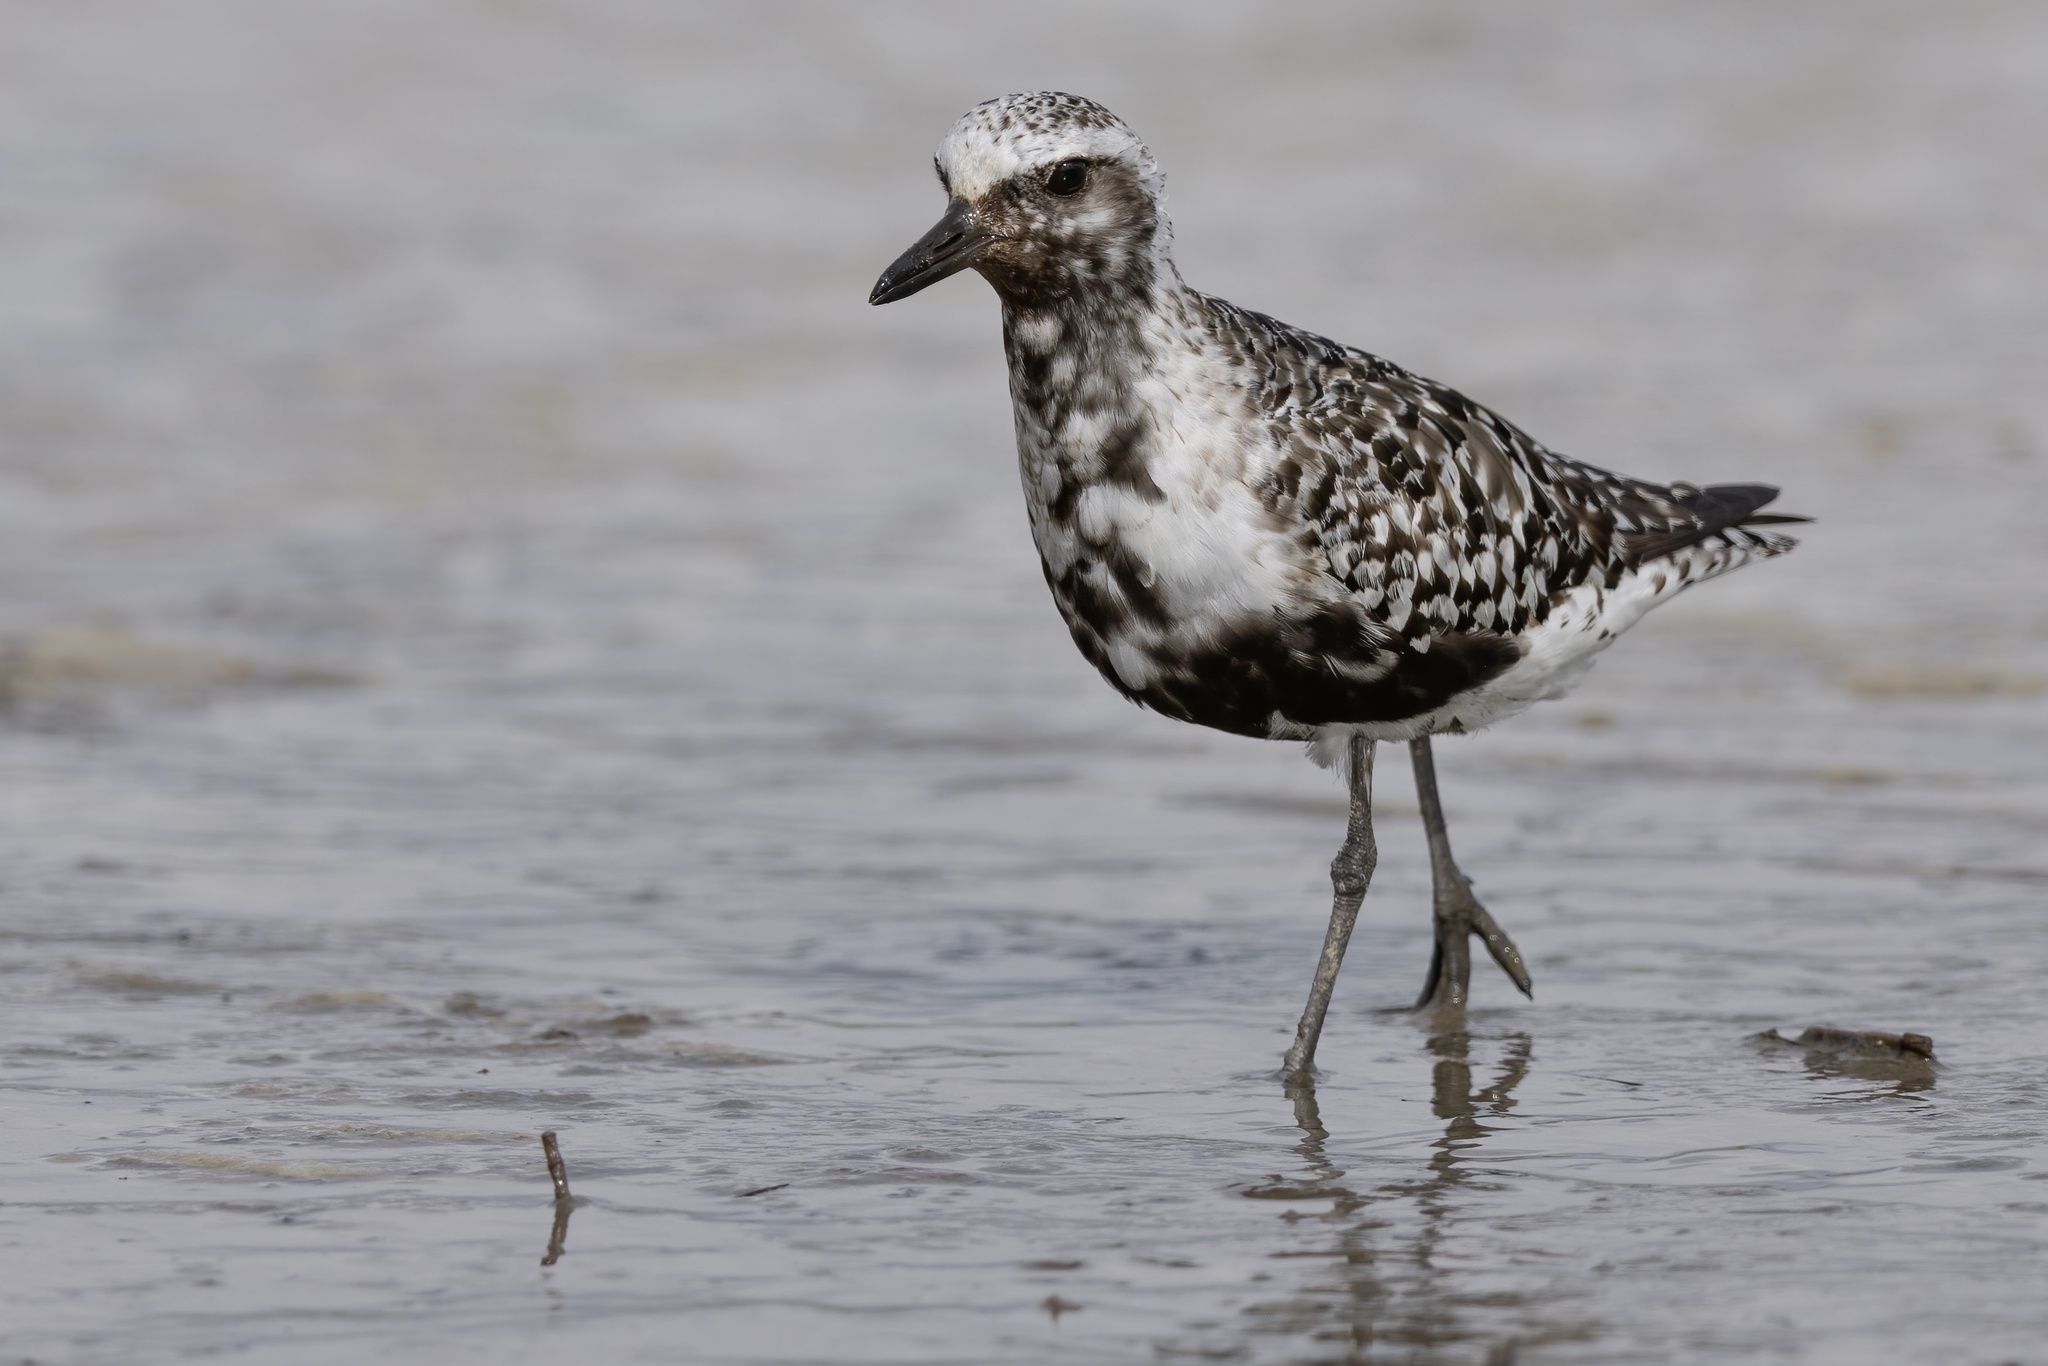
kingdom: Animalia
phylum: Chordata
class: Aves
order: Charadriiformes
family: Charadriidae
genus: Pluvialis
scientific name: Pluvialis squatarola
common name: Grey plover
